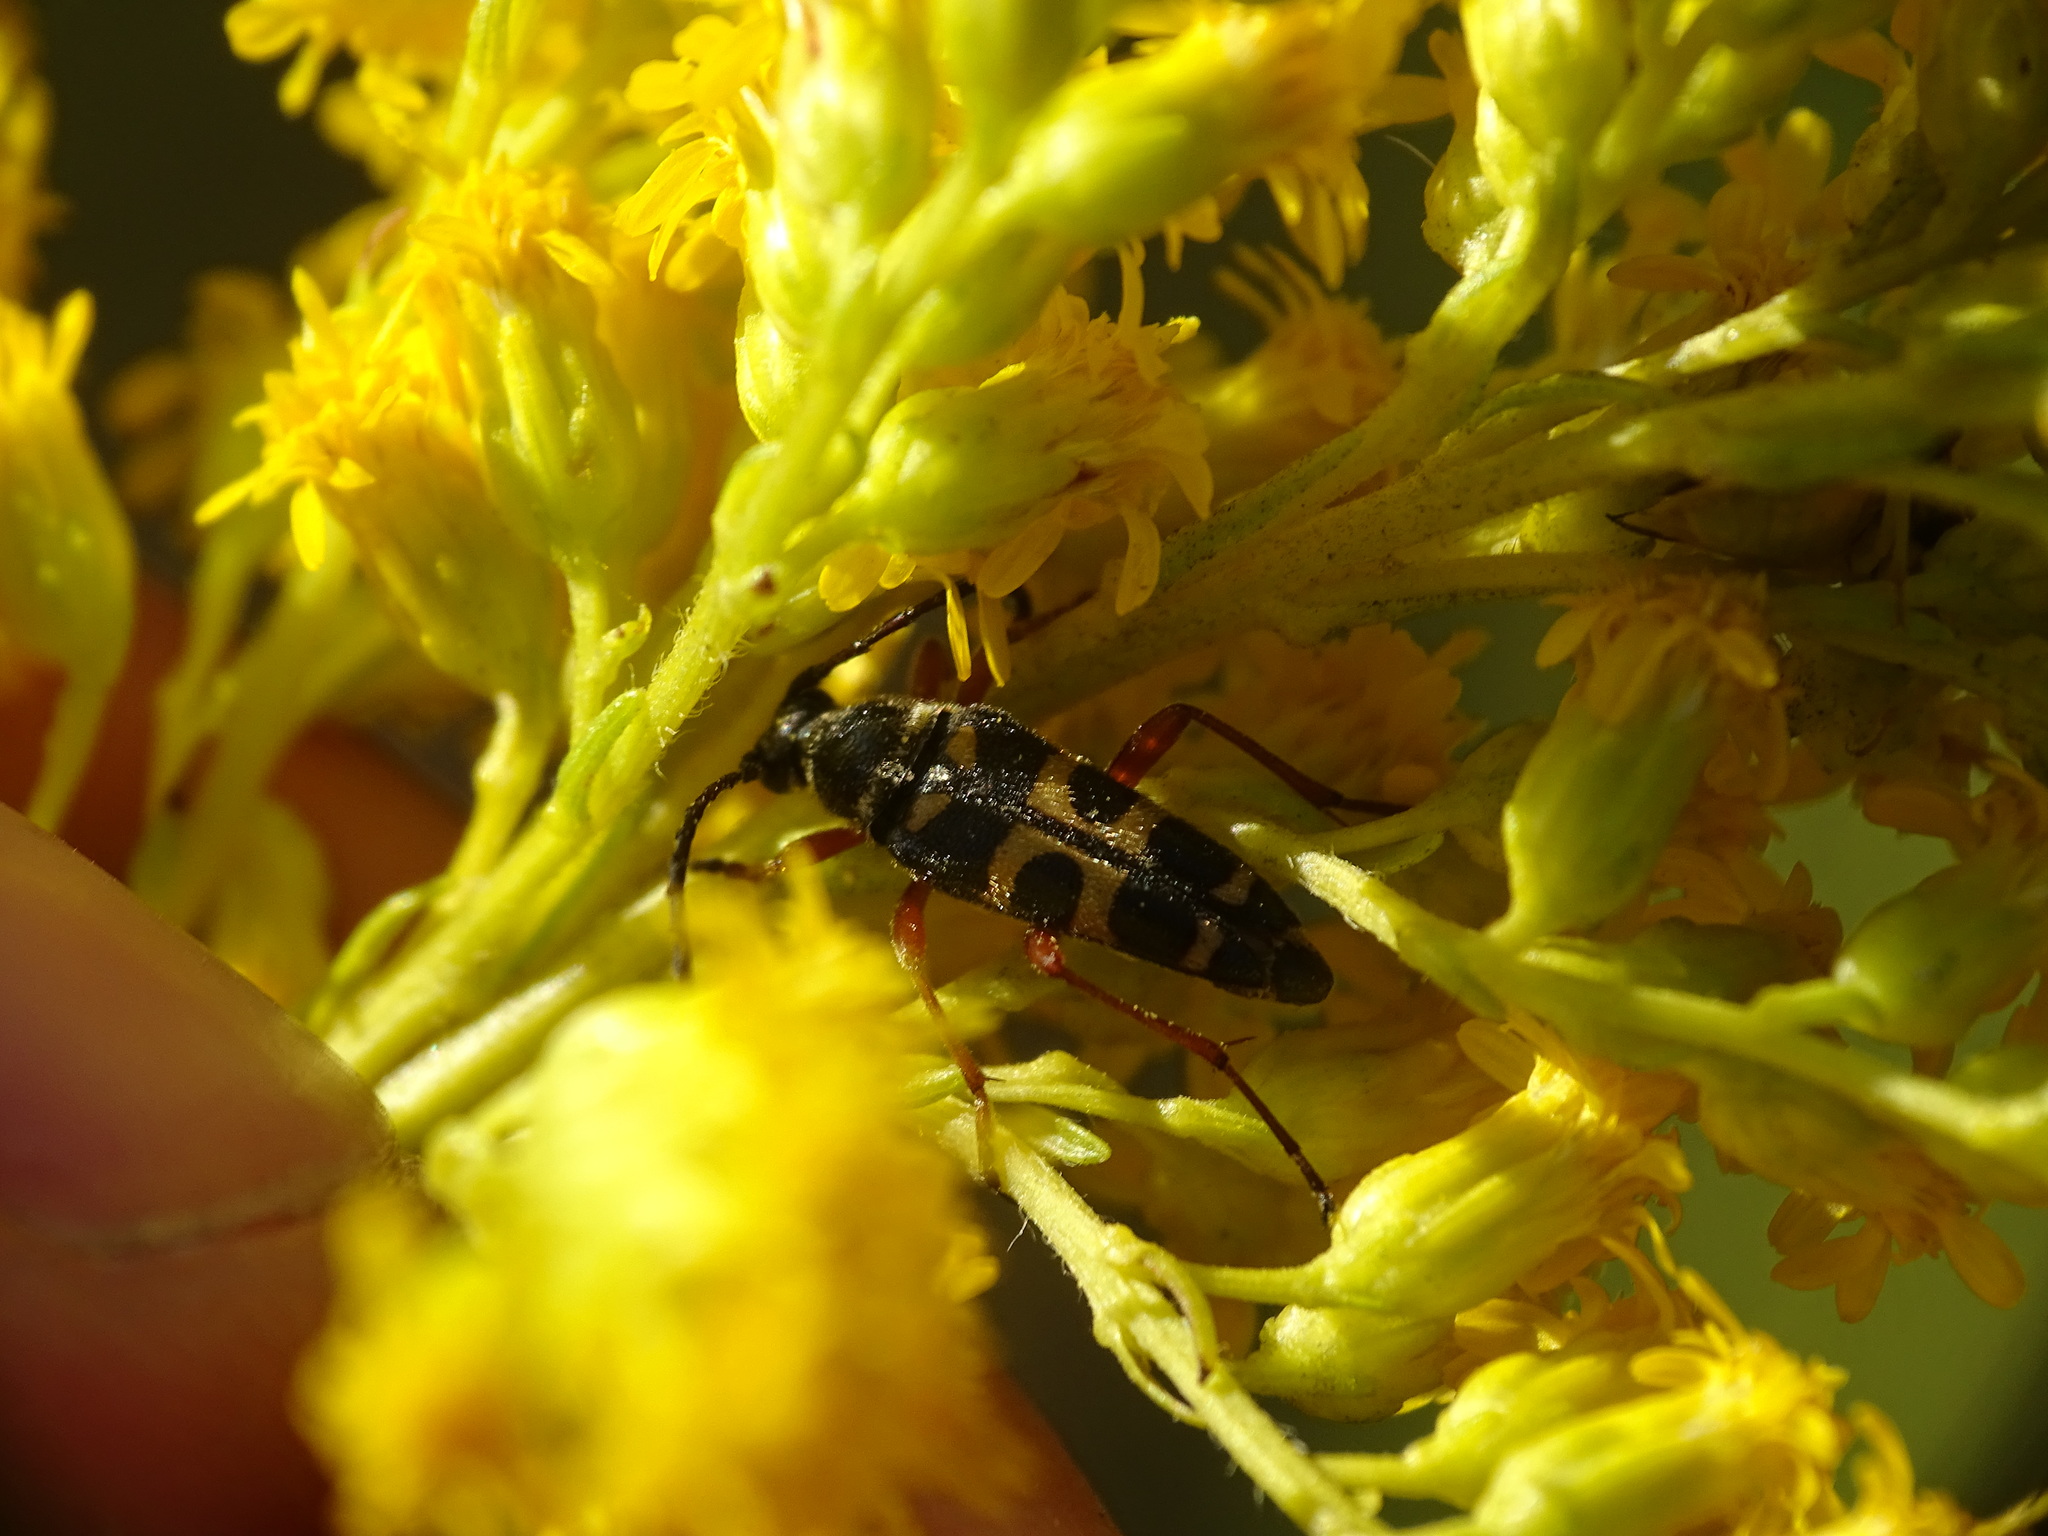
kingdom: Animalia
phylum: Arthropoda
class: Insecta
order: Coleoptera
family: Cerambycidae
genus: Typocerus
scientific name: Typocerus sparsus
